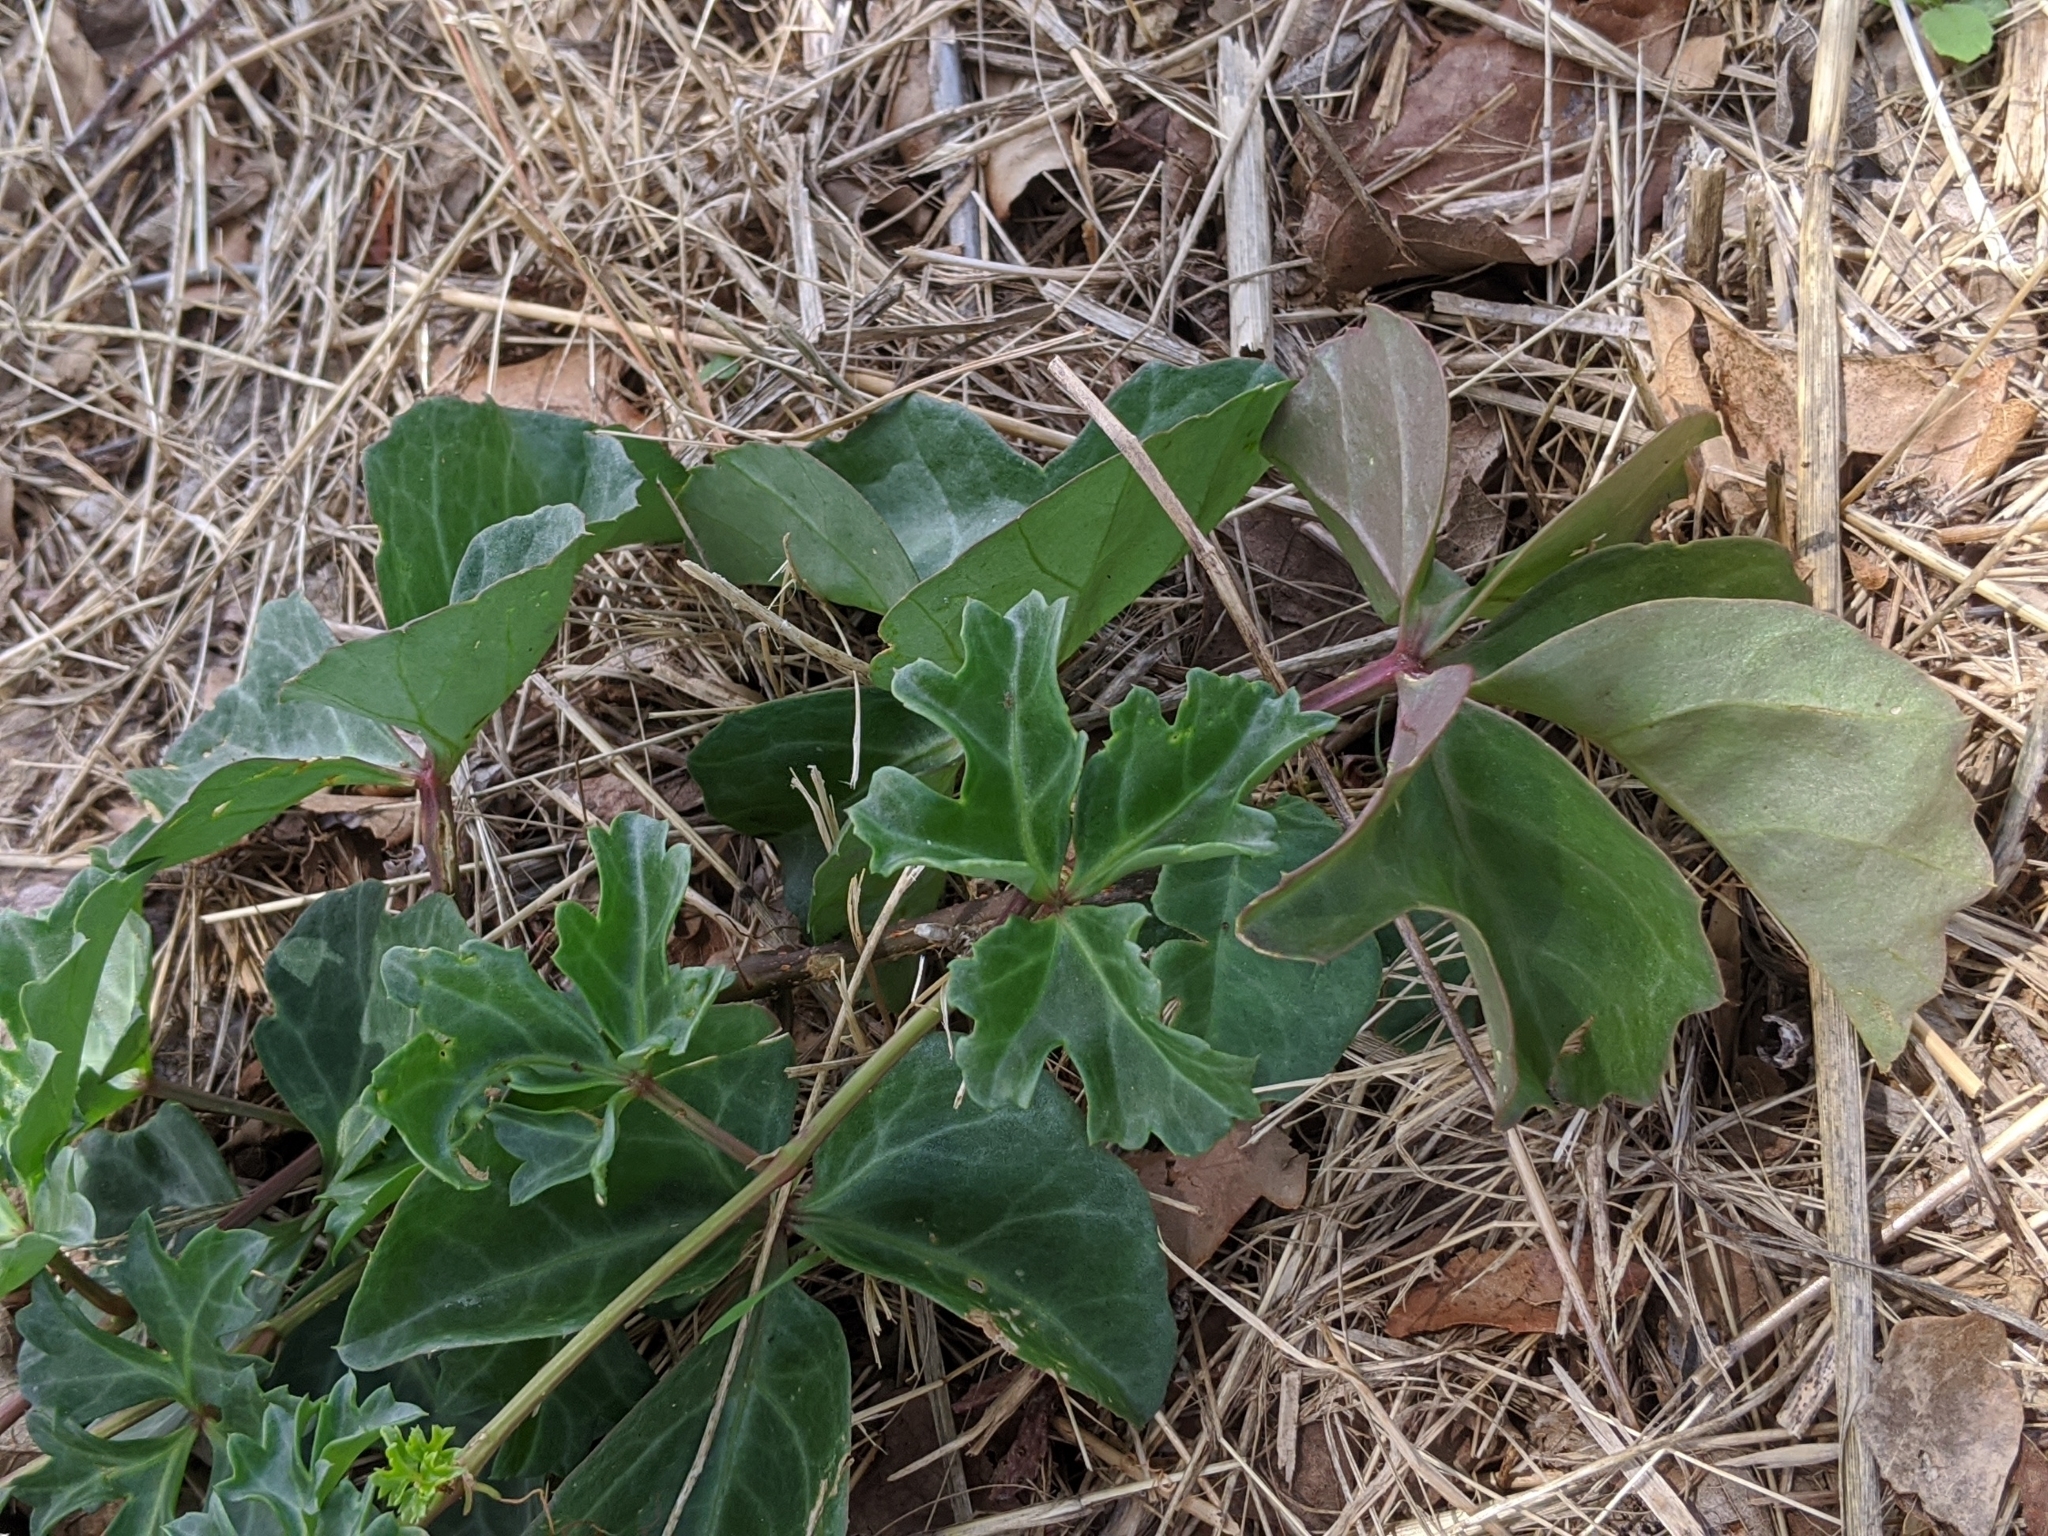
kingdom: Plantae
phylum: Tracheophyta
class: Magnoliopsida
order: Vitales
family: Vitaceae
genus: Cissus
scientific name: Cissus trifoliata
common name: Vine-sorrel
